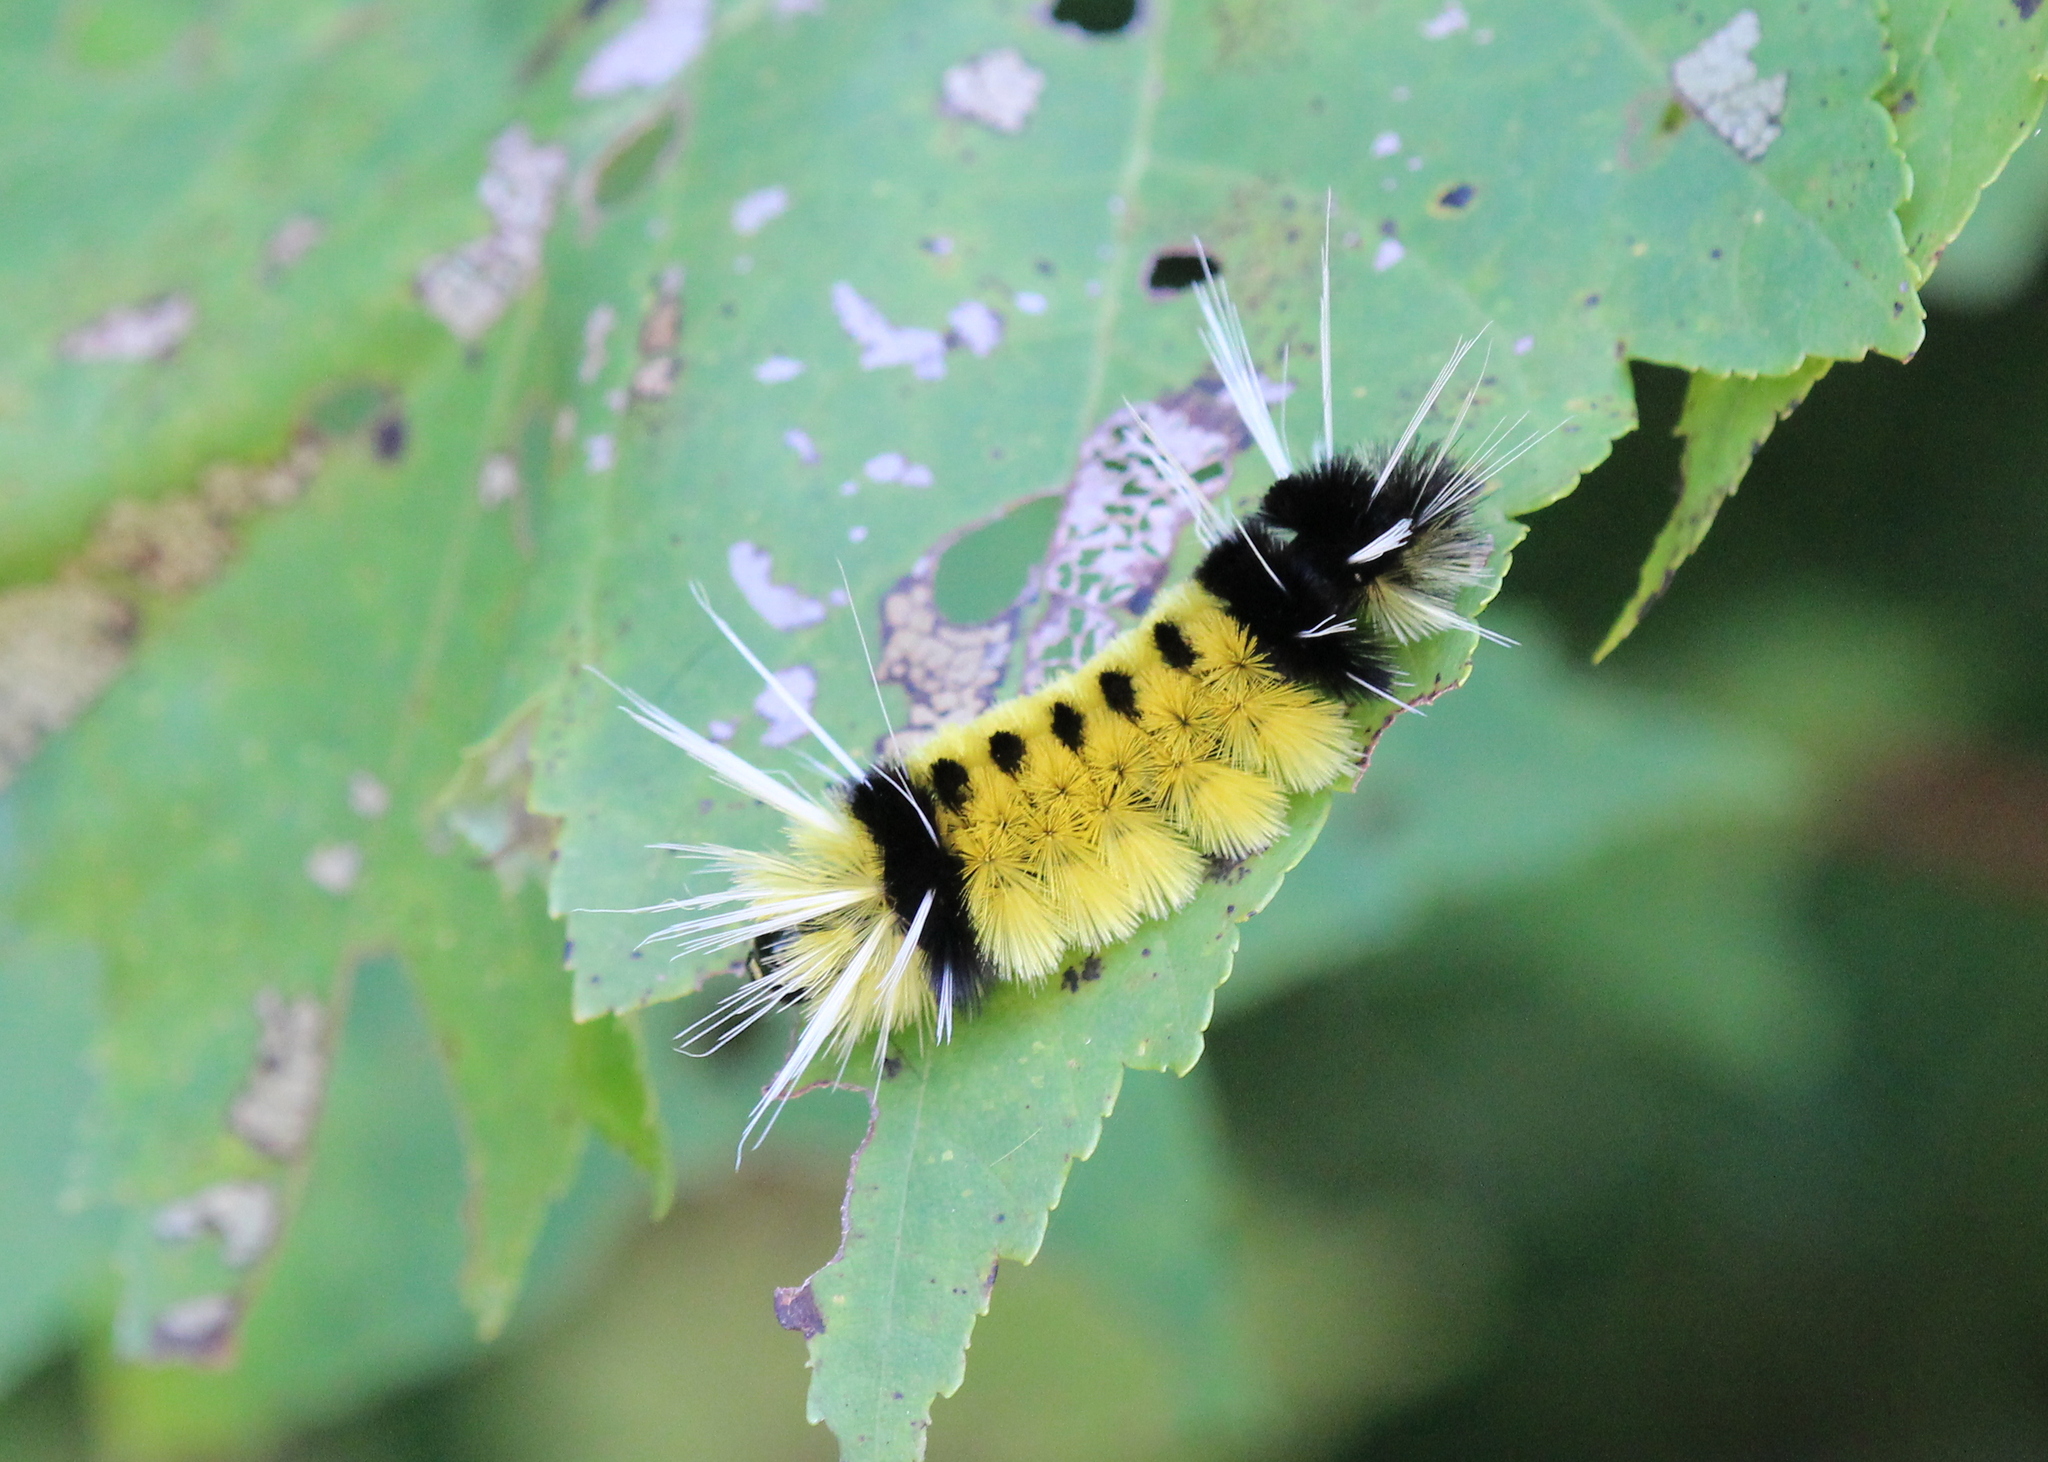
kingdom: Animalia
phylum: Arthropoda
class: Insecta
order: Lepidoptera
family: Erebidae
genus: Lophocampa
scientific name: Lophocampa maculata
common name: Spotted tussock moth
